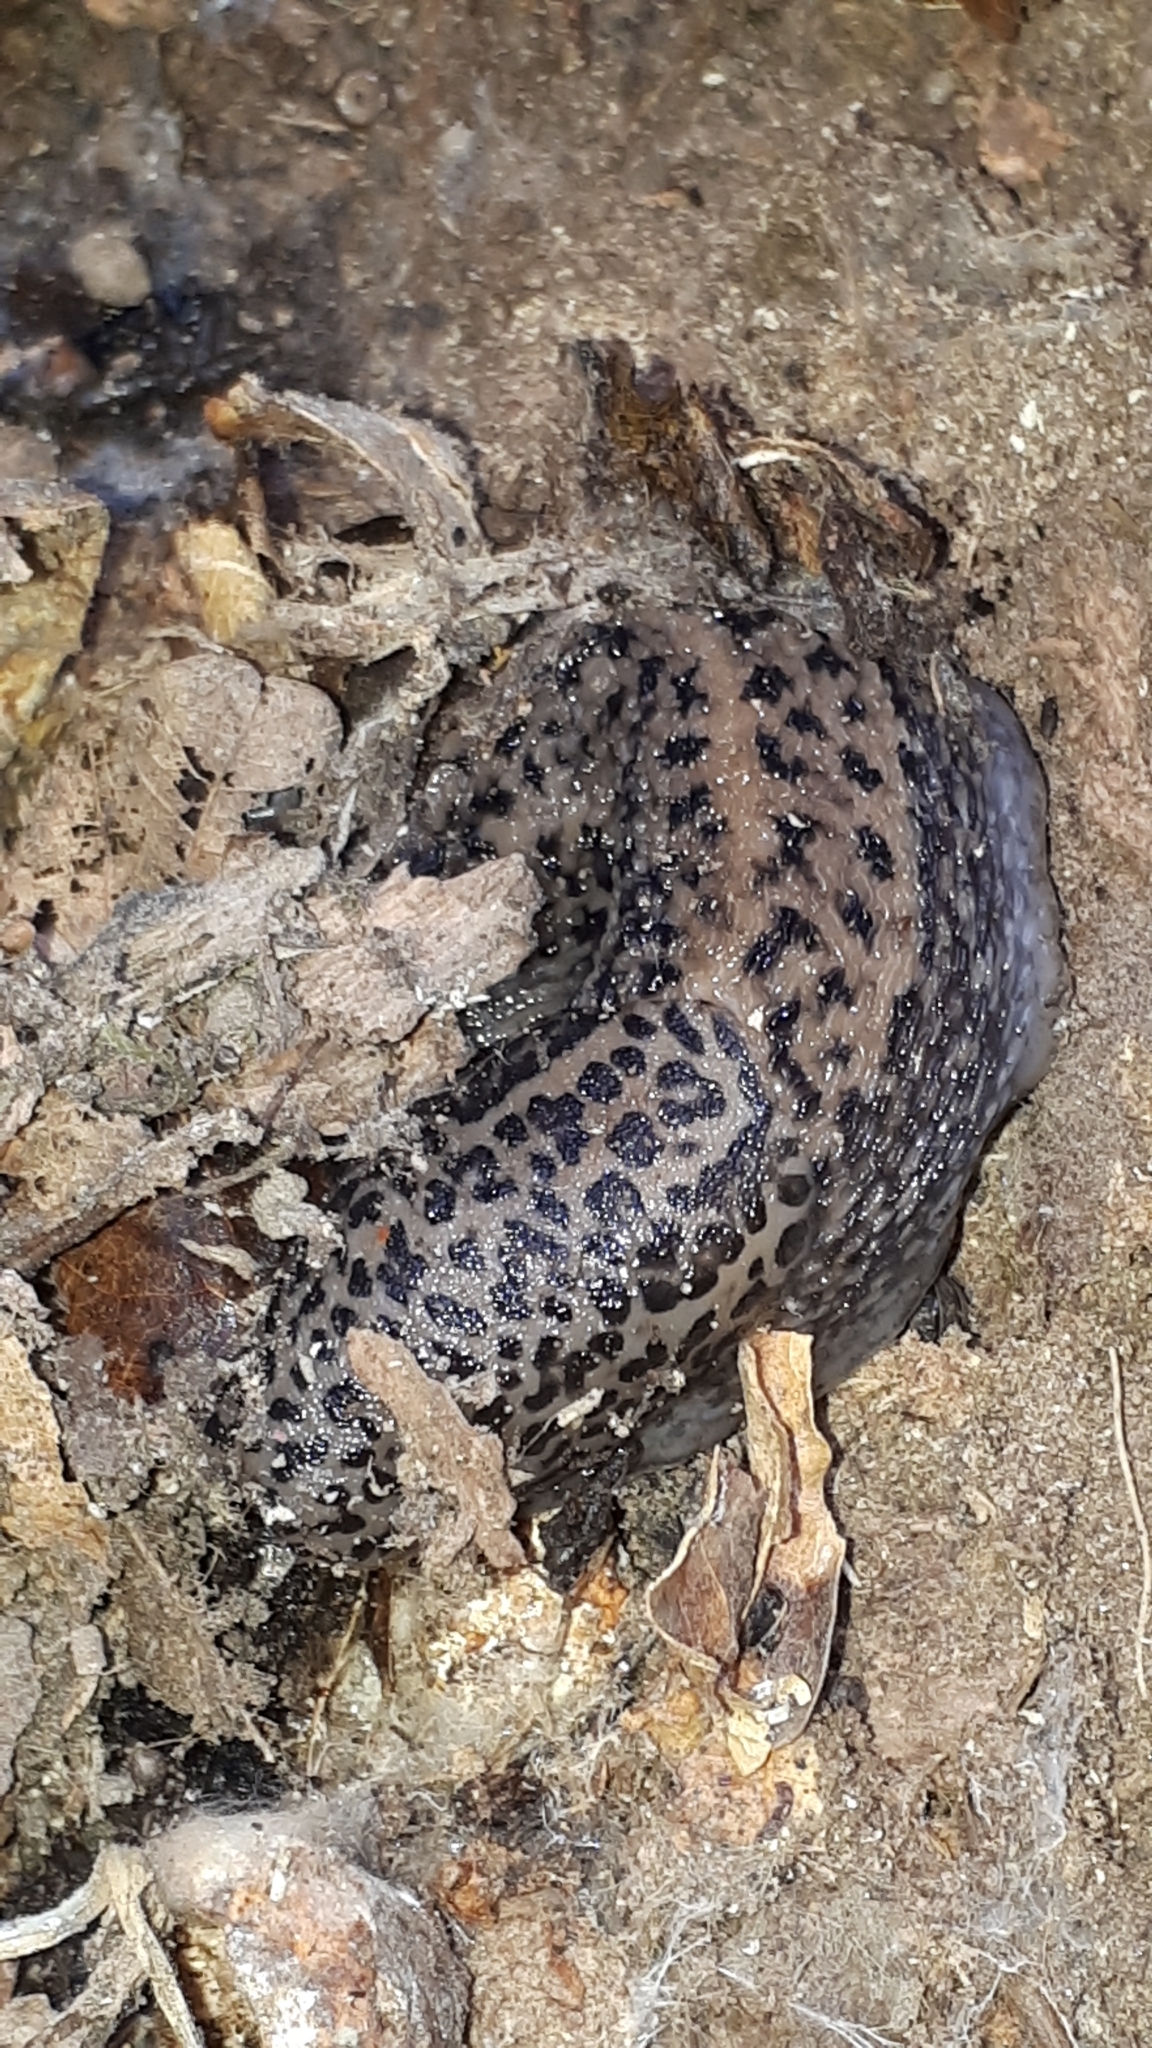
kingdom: Animalia
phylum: Mollusca
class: Gastropoda
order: Stylommatophora
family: Limacidae
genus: Limax
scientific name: Limax maximus
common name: Great grey slug
